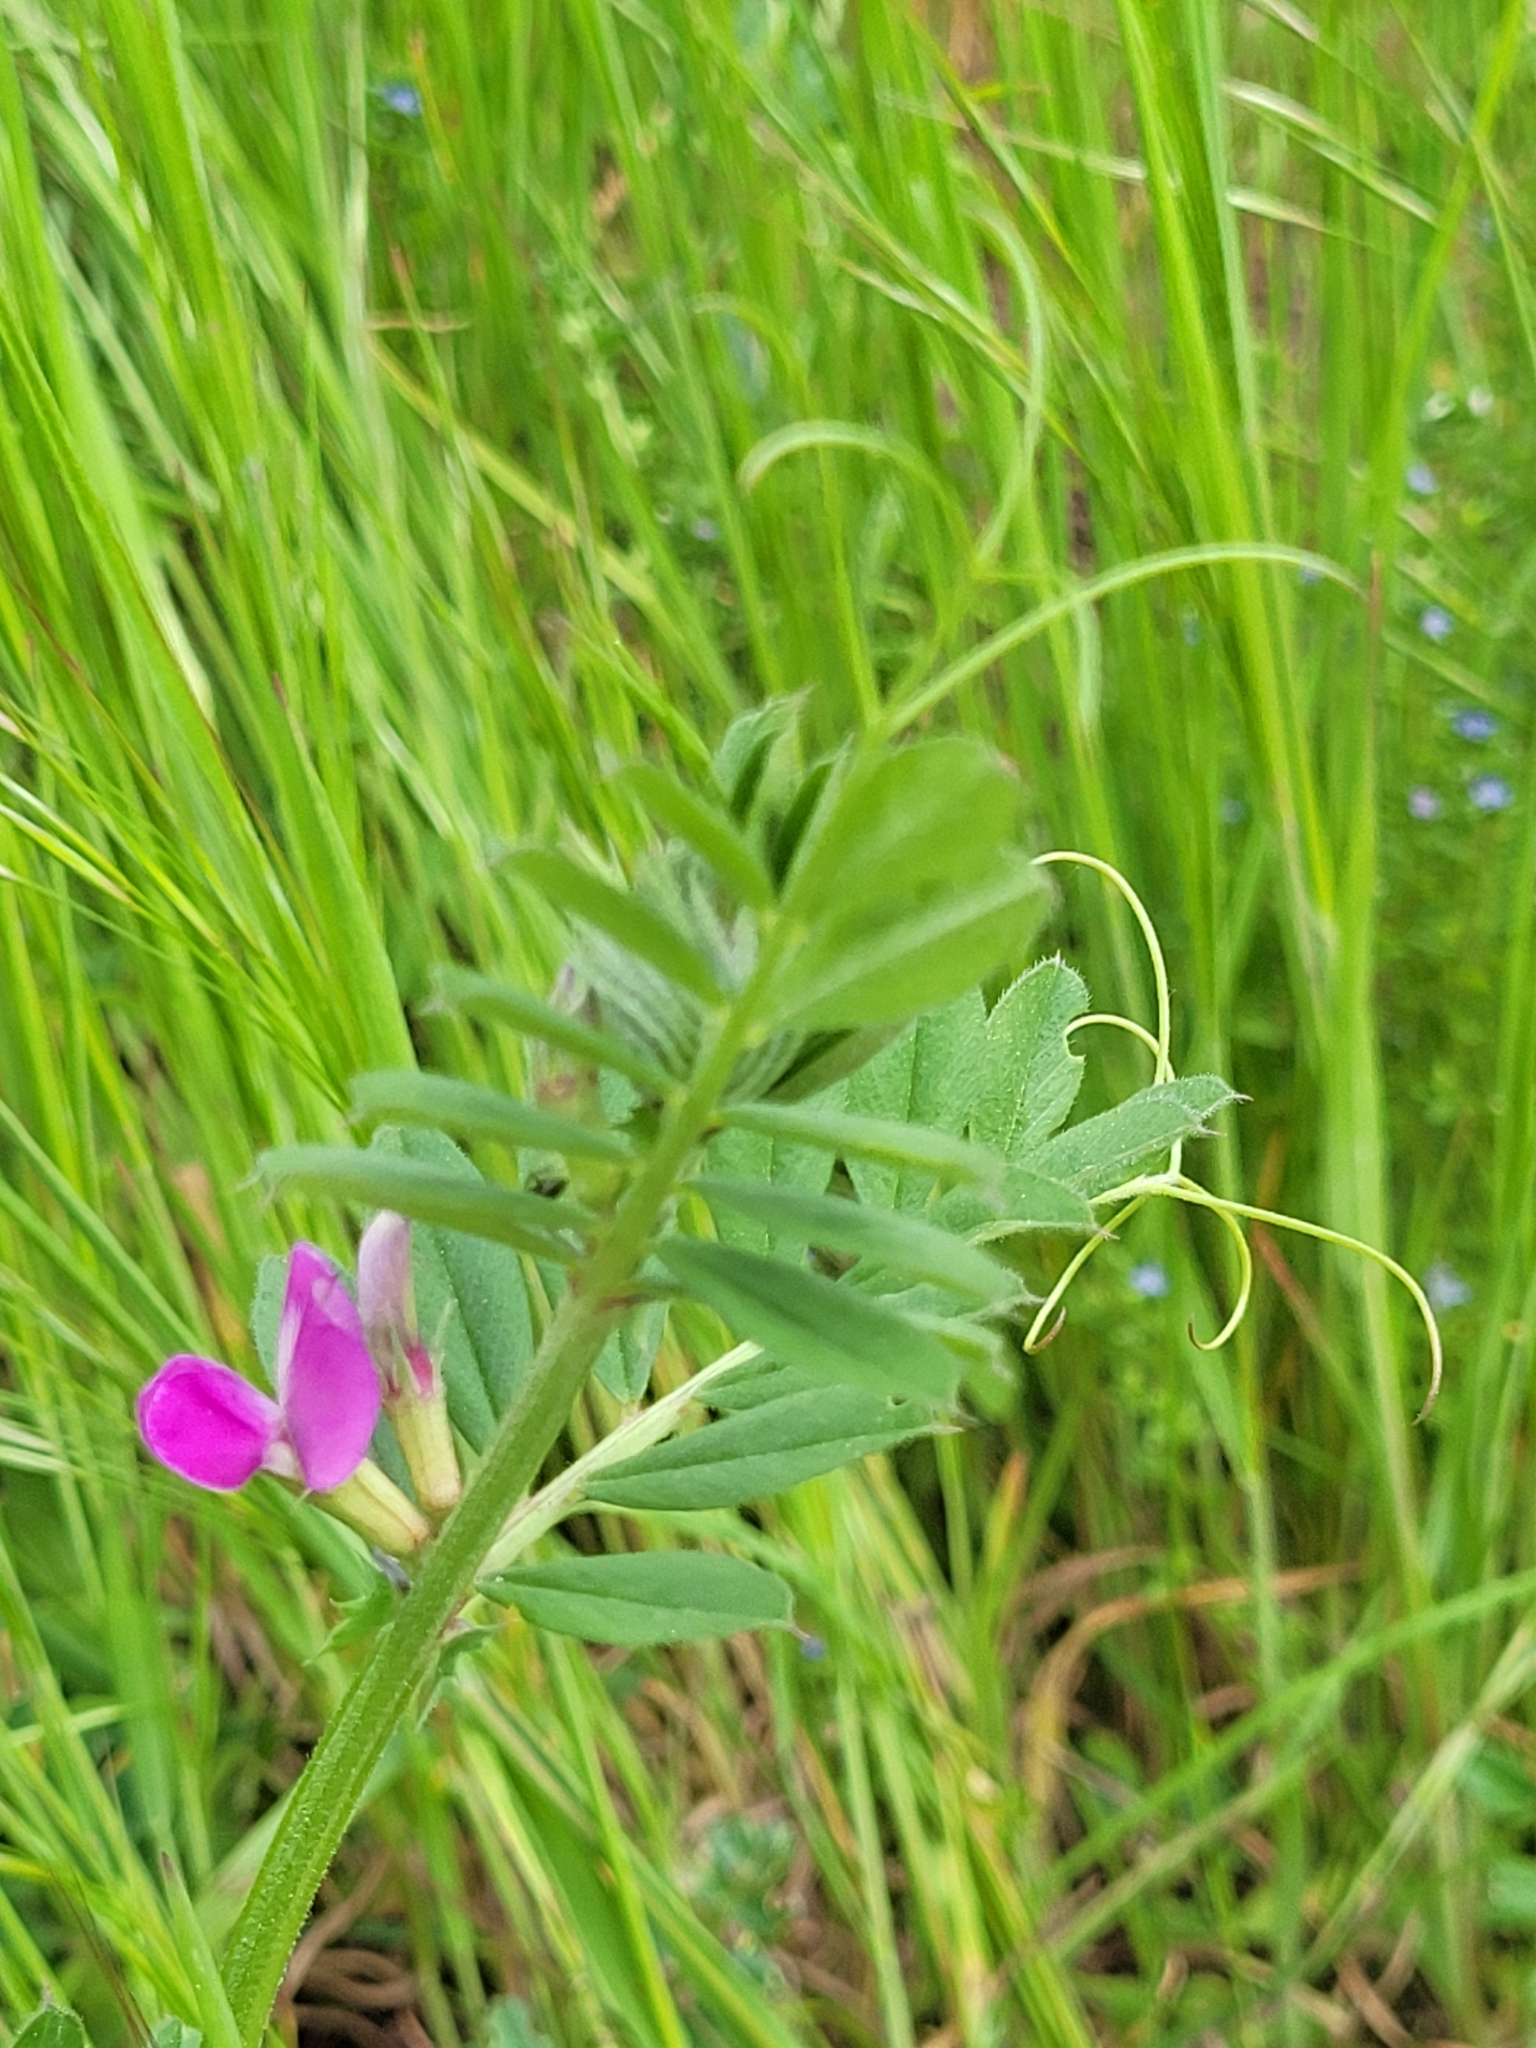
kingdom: Plantae
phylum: Tracheophyta
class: Magnoliopsida
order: Fabales
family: Fabaceae
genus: Vicia
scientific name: Vicia sativa
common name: Garden vetch
